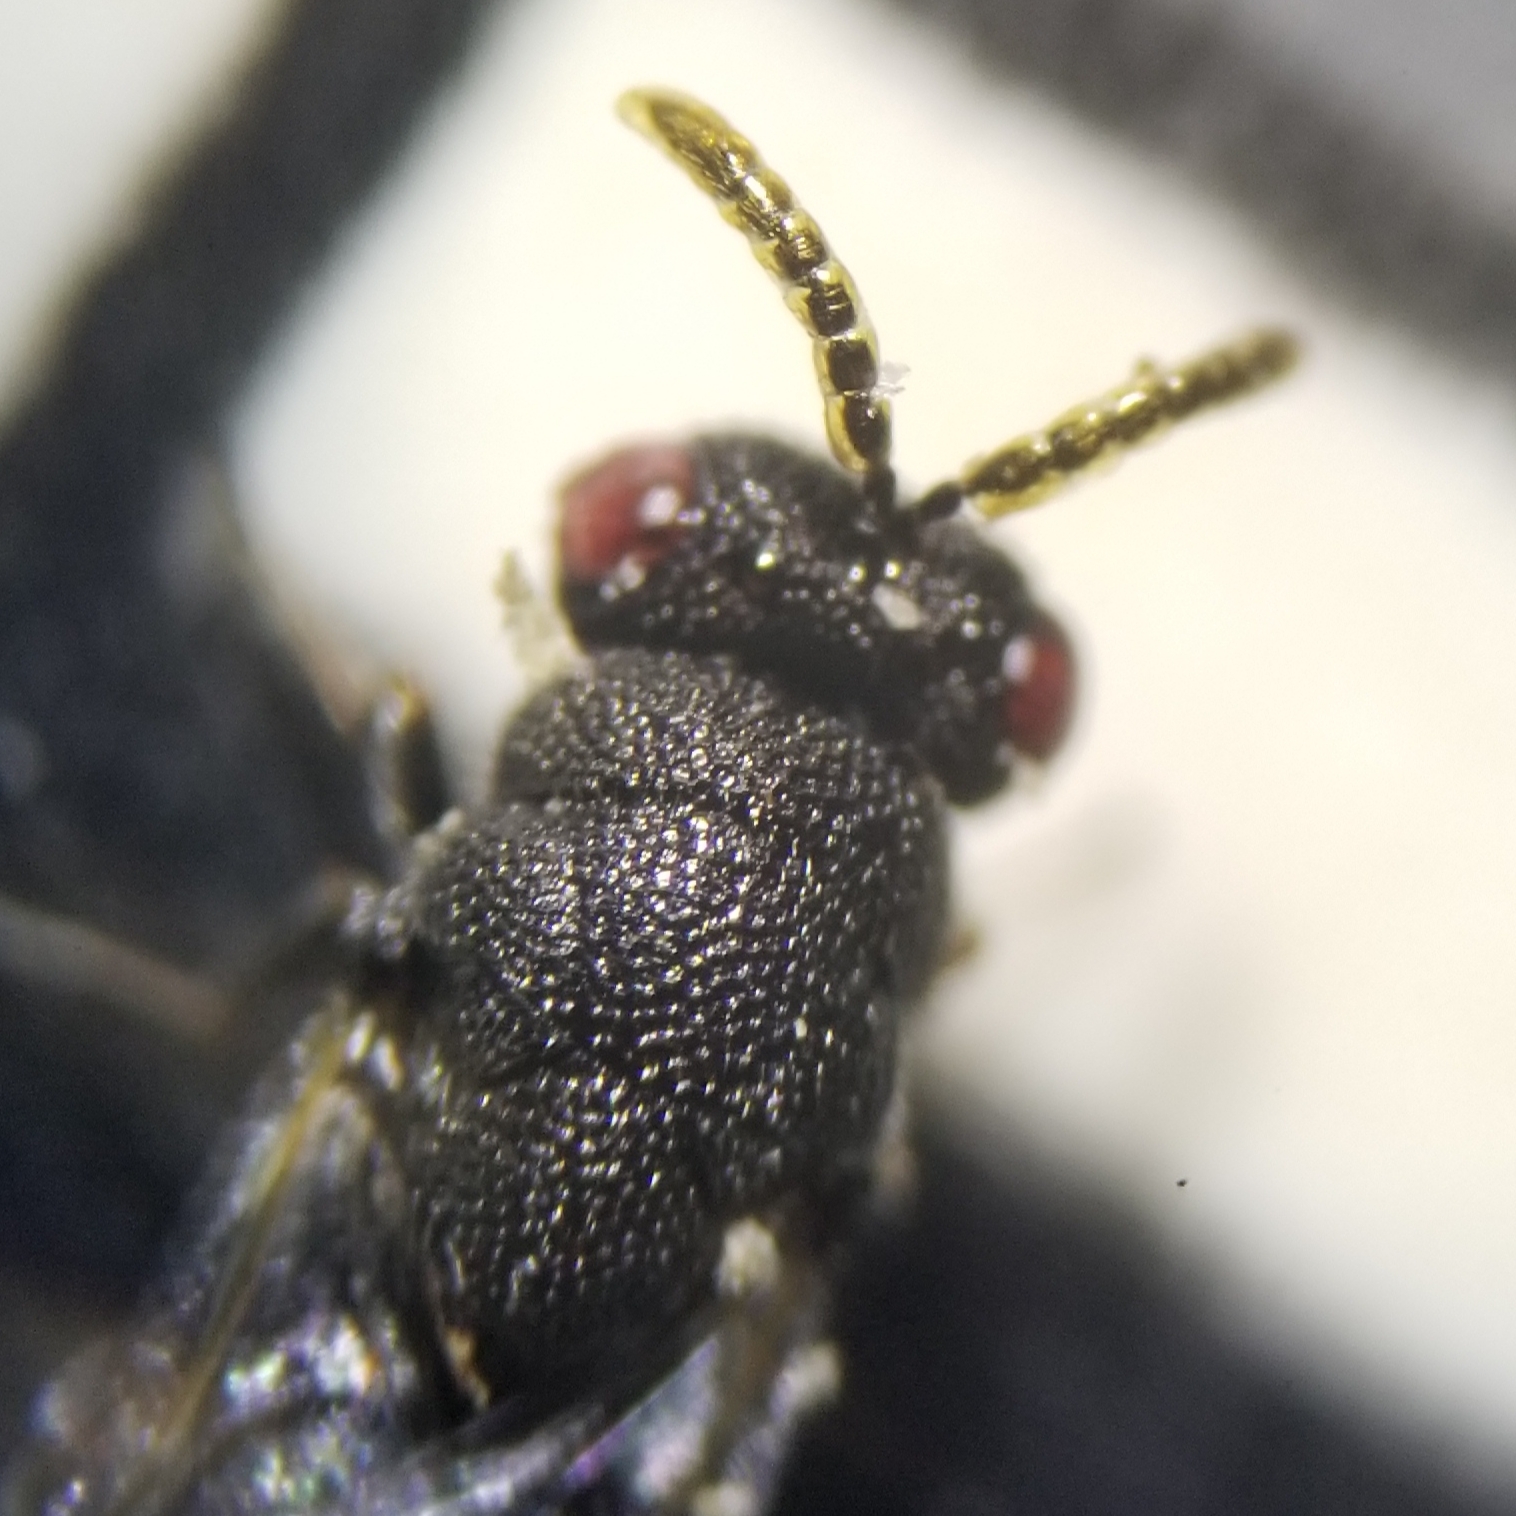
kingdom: Animalia
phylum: Arthropoda
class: Insecta
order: Hymenoptera
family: Eurytomidae
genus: Eurytoma
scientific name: Eurytoma obtusiventris
